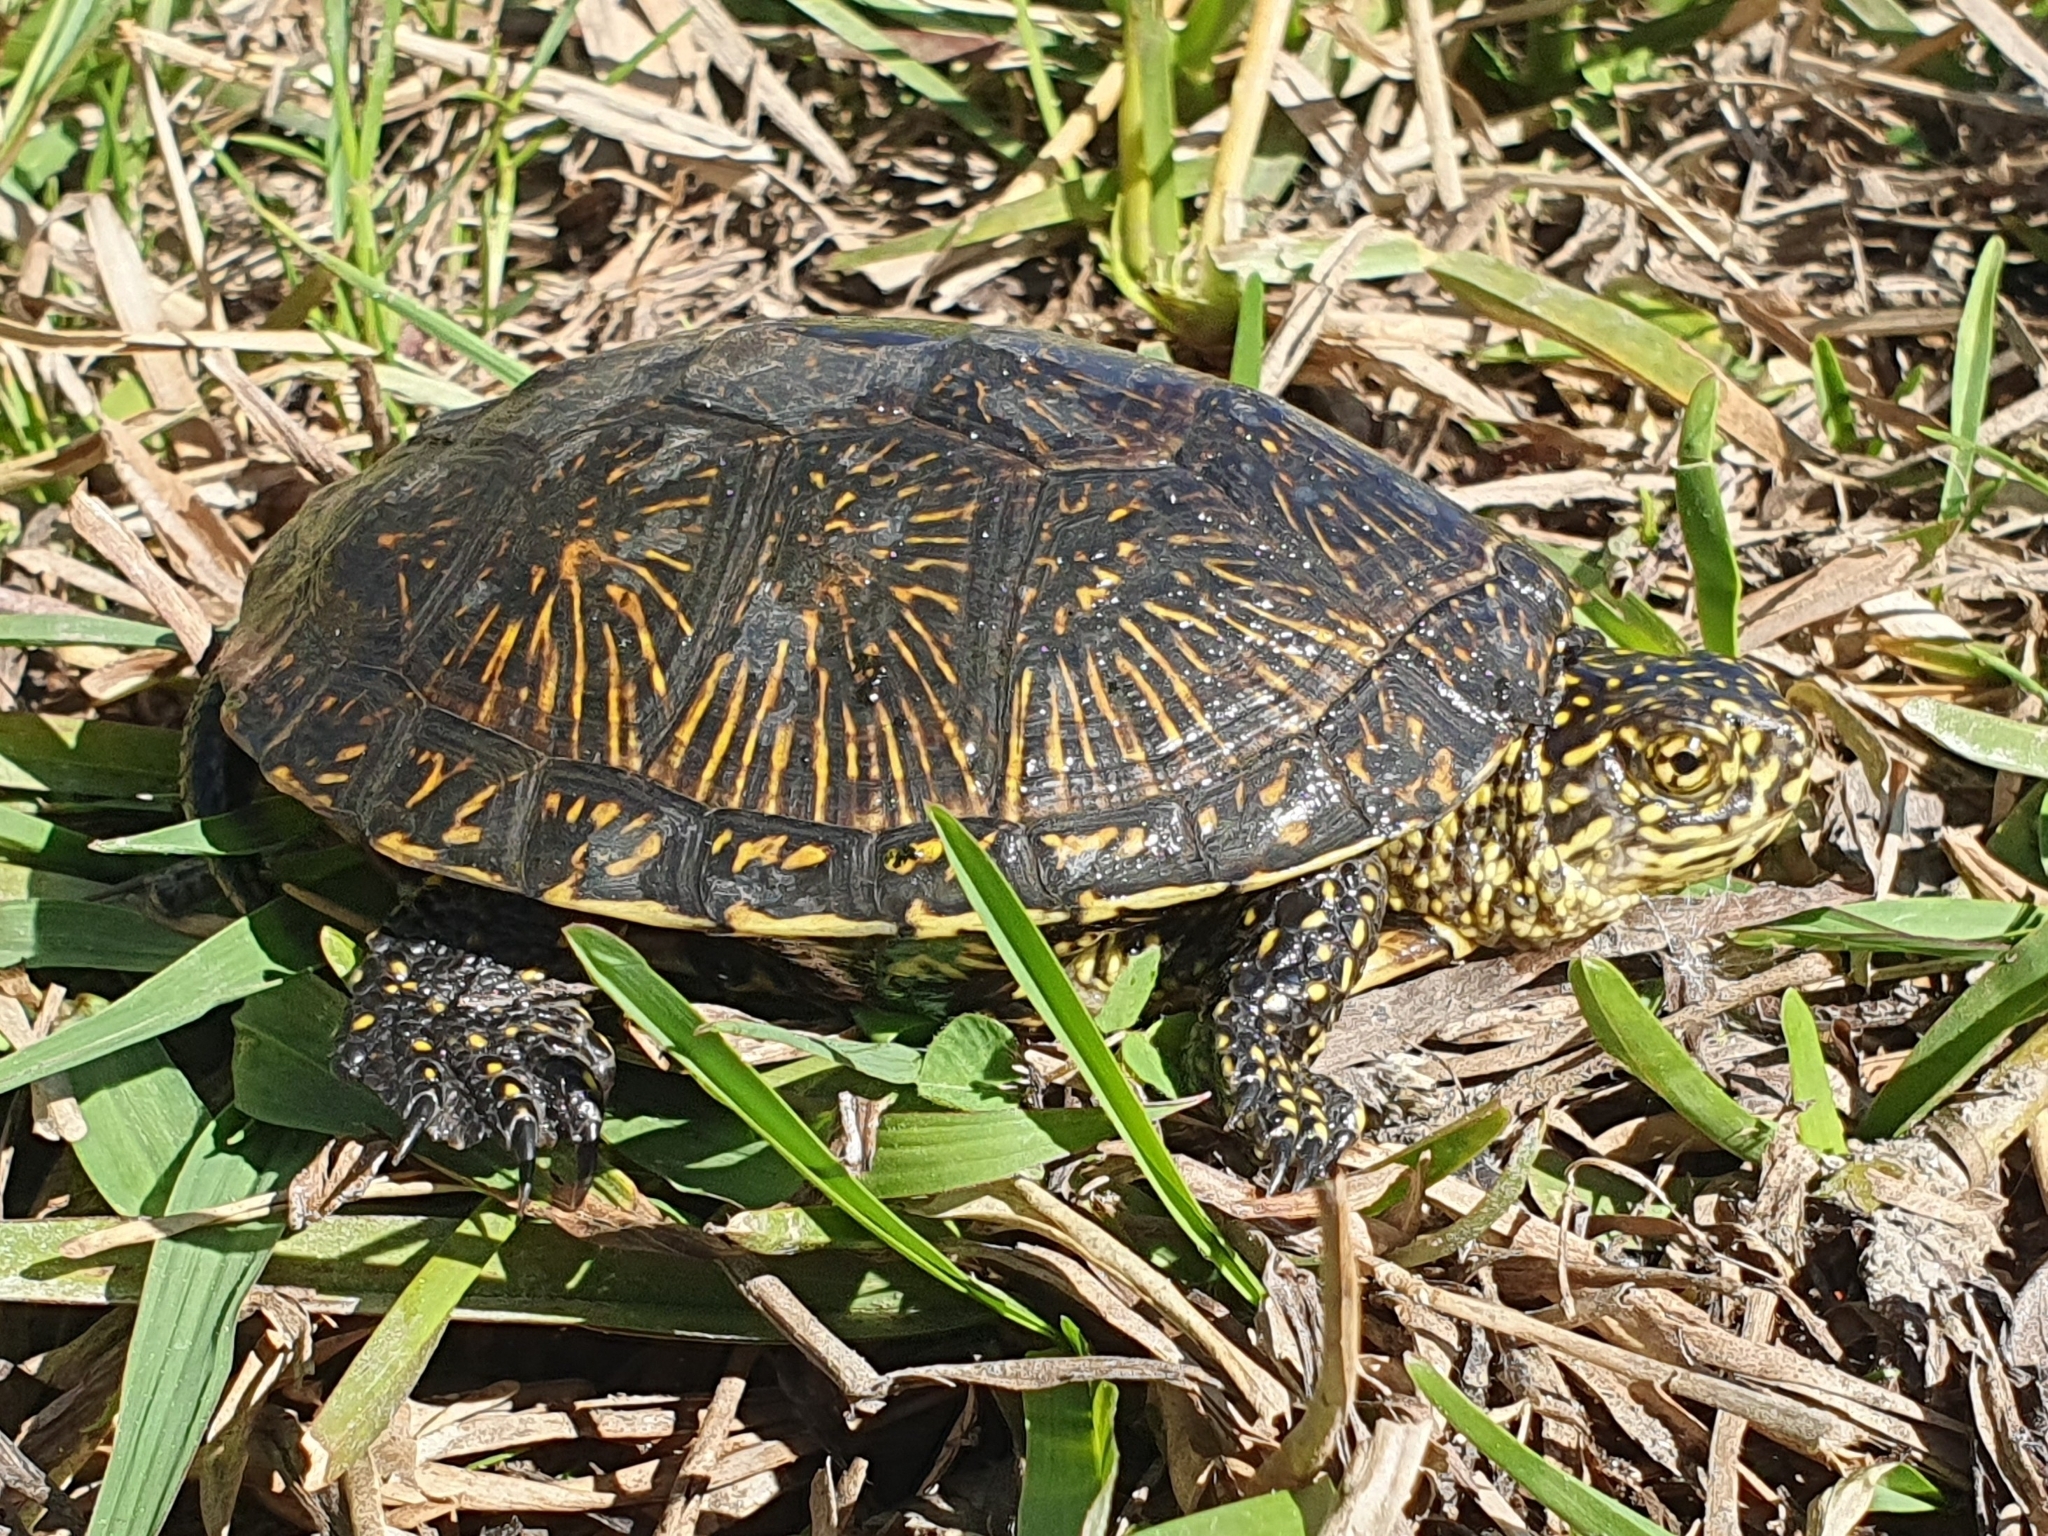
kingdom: Animalia
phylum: Chordata
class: Testudines
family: Emydidae
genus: Emys
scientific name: Emys orbicularis
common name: European pond turtle
